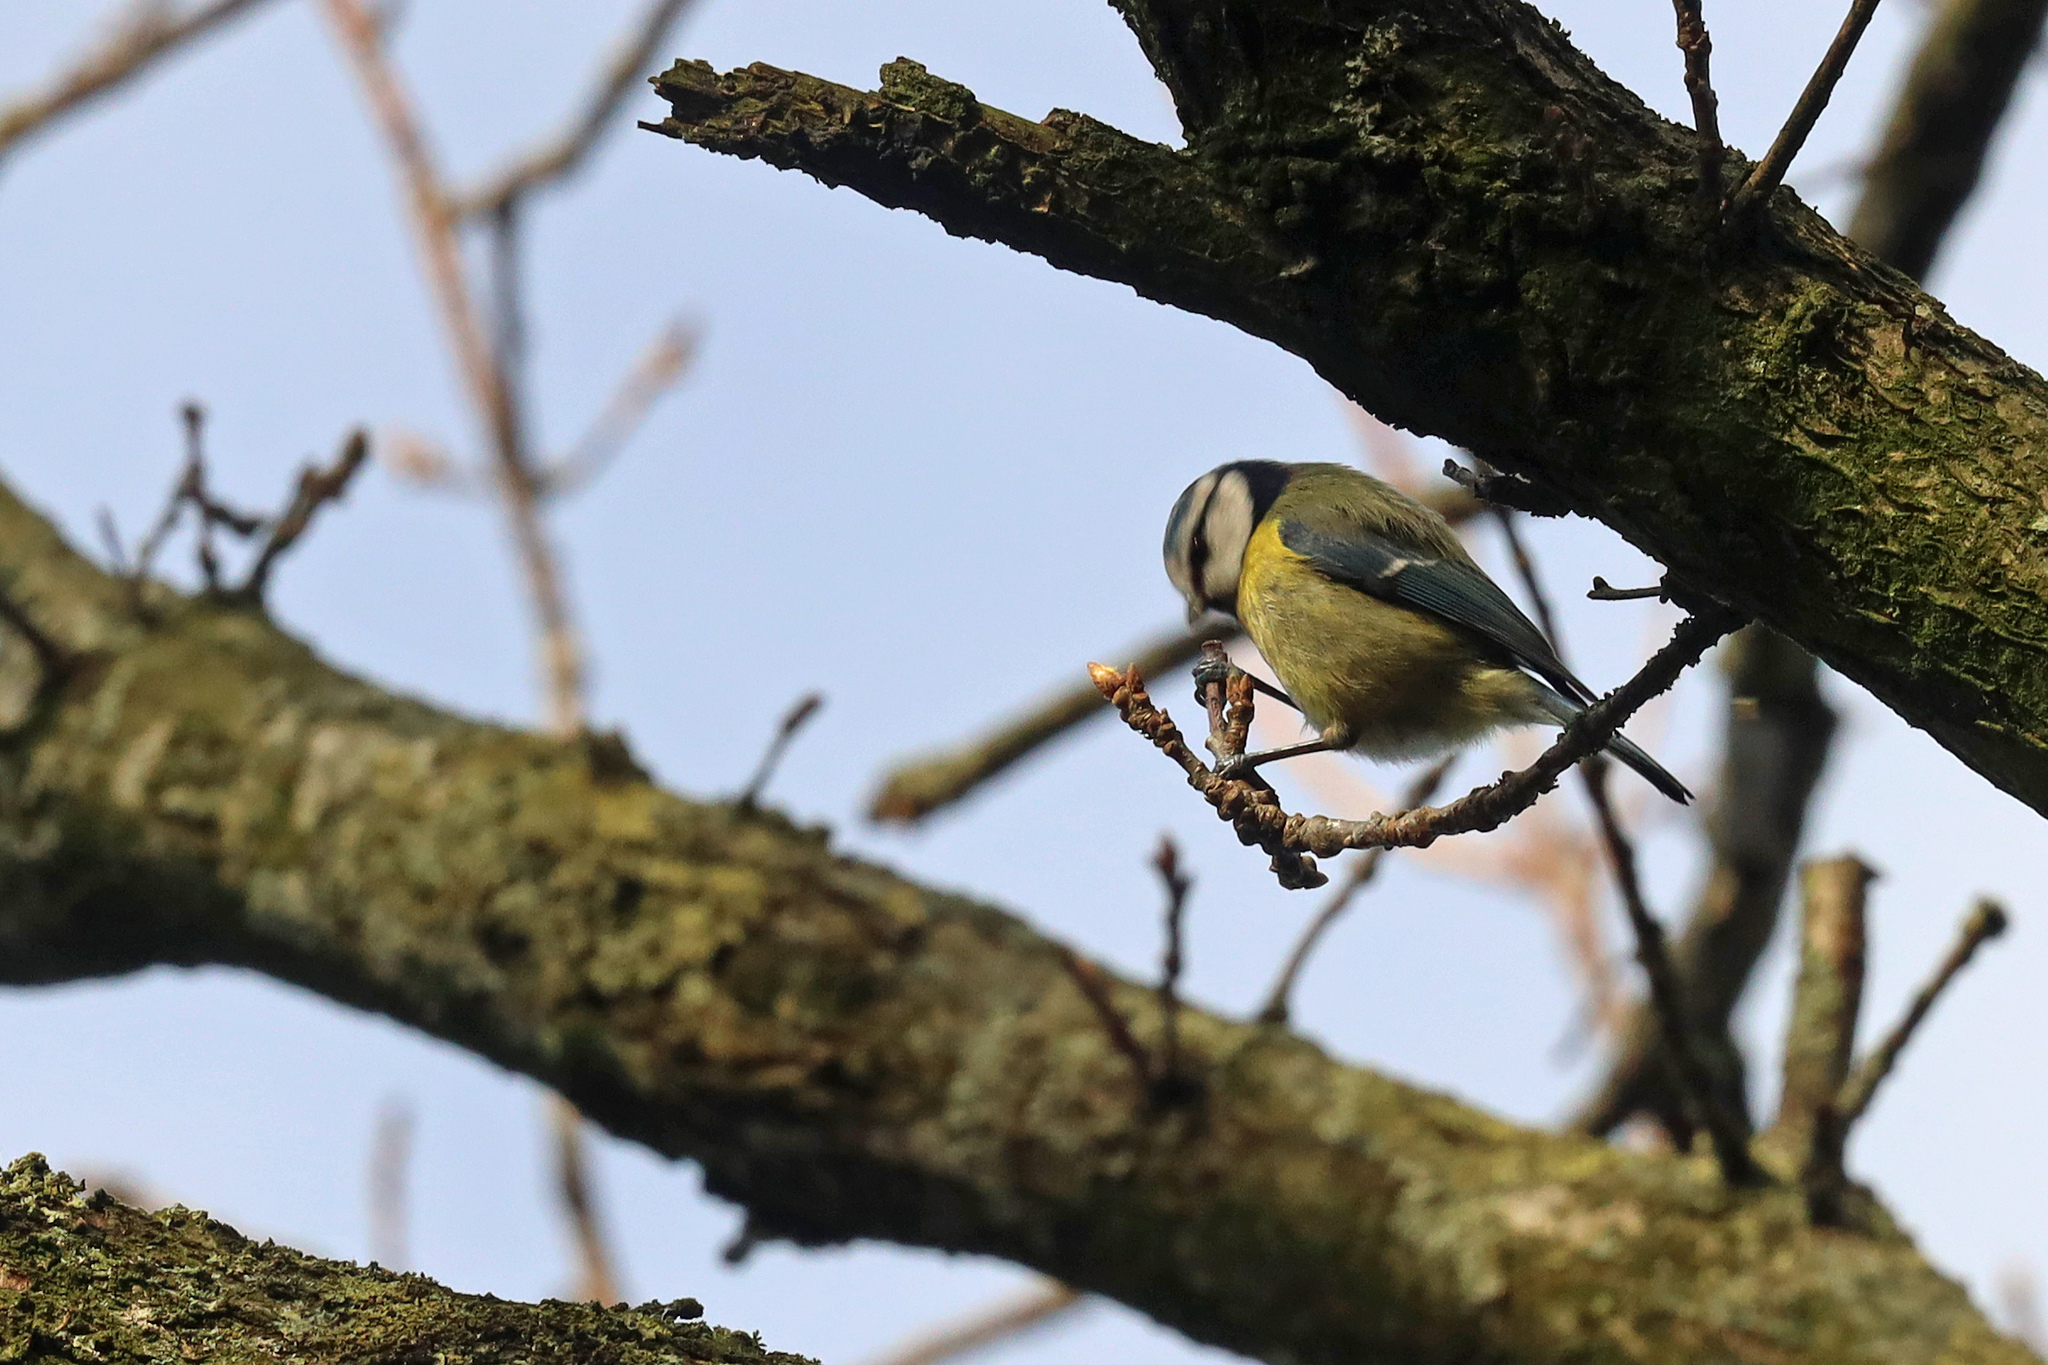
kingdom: Animalia
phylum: Chordata
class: Aves
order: Passeriformes
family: Paridae
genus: Cyanistes
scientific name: Cyanistes caeruleus
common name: Eurasian blue tit
